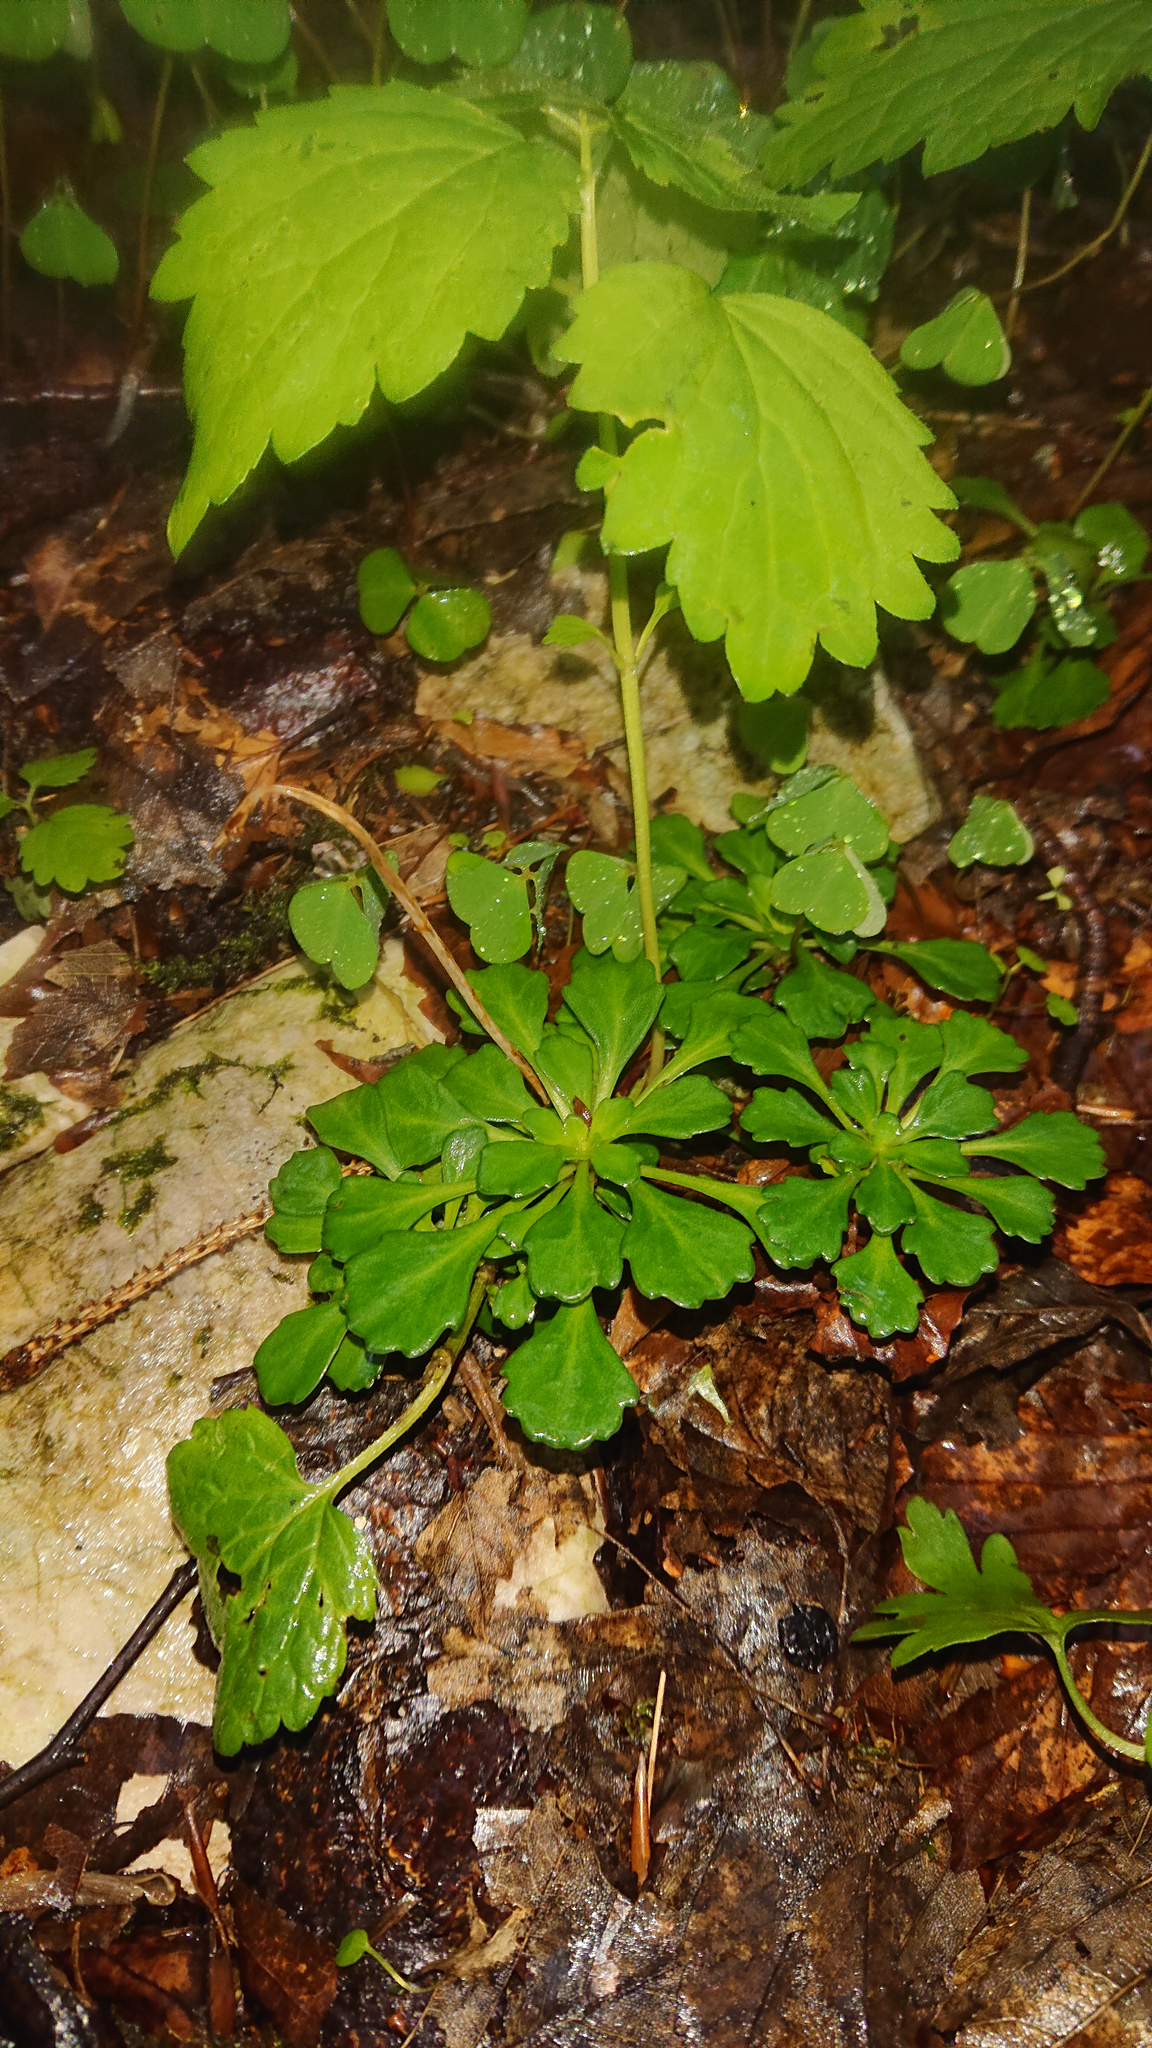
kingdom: Plantae
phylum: Tracheophyta
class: Magnoliopsida
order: Saxifragales
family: Saxifragaceae
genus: Saxifraga
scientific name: Saxifraga cuneifolia
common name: Lesser londonpride
